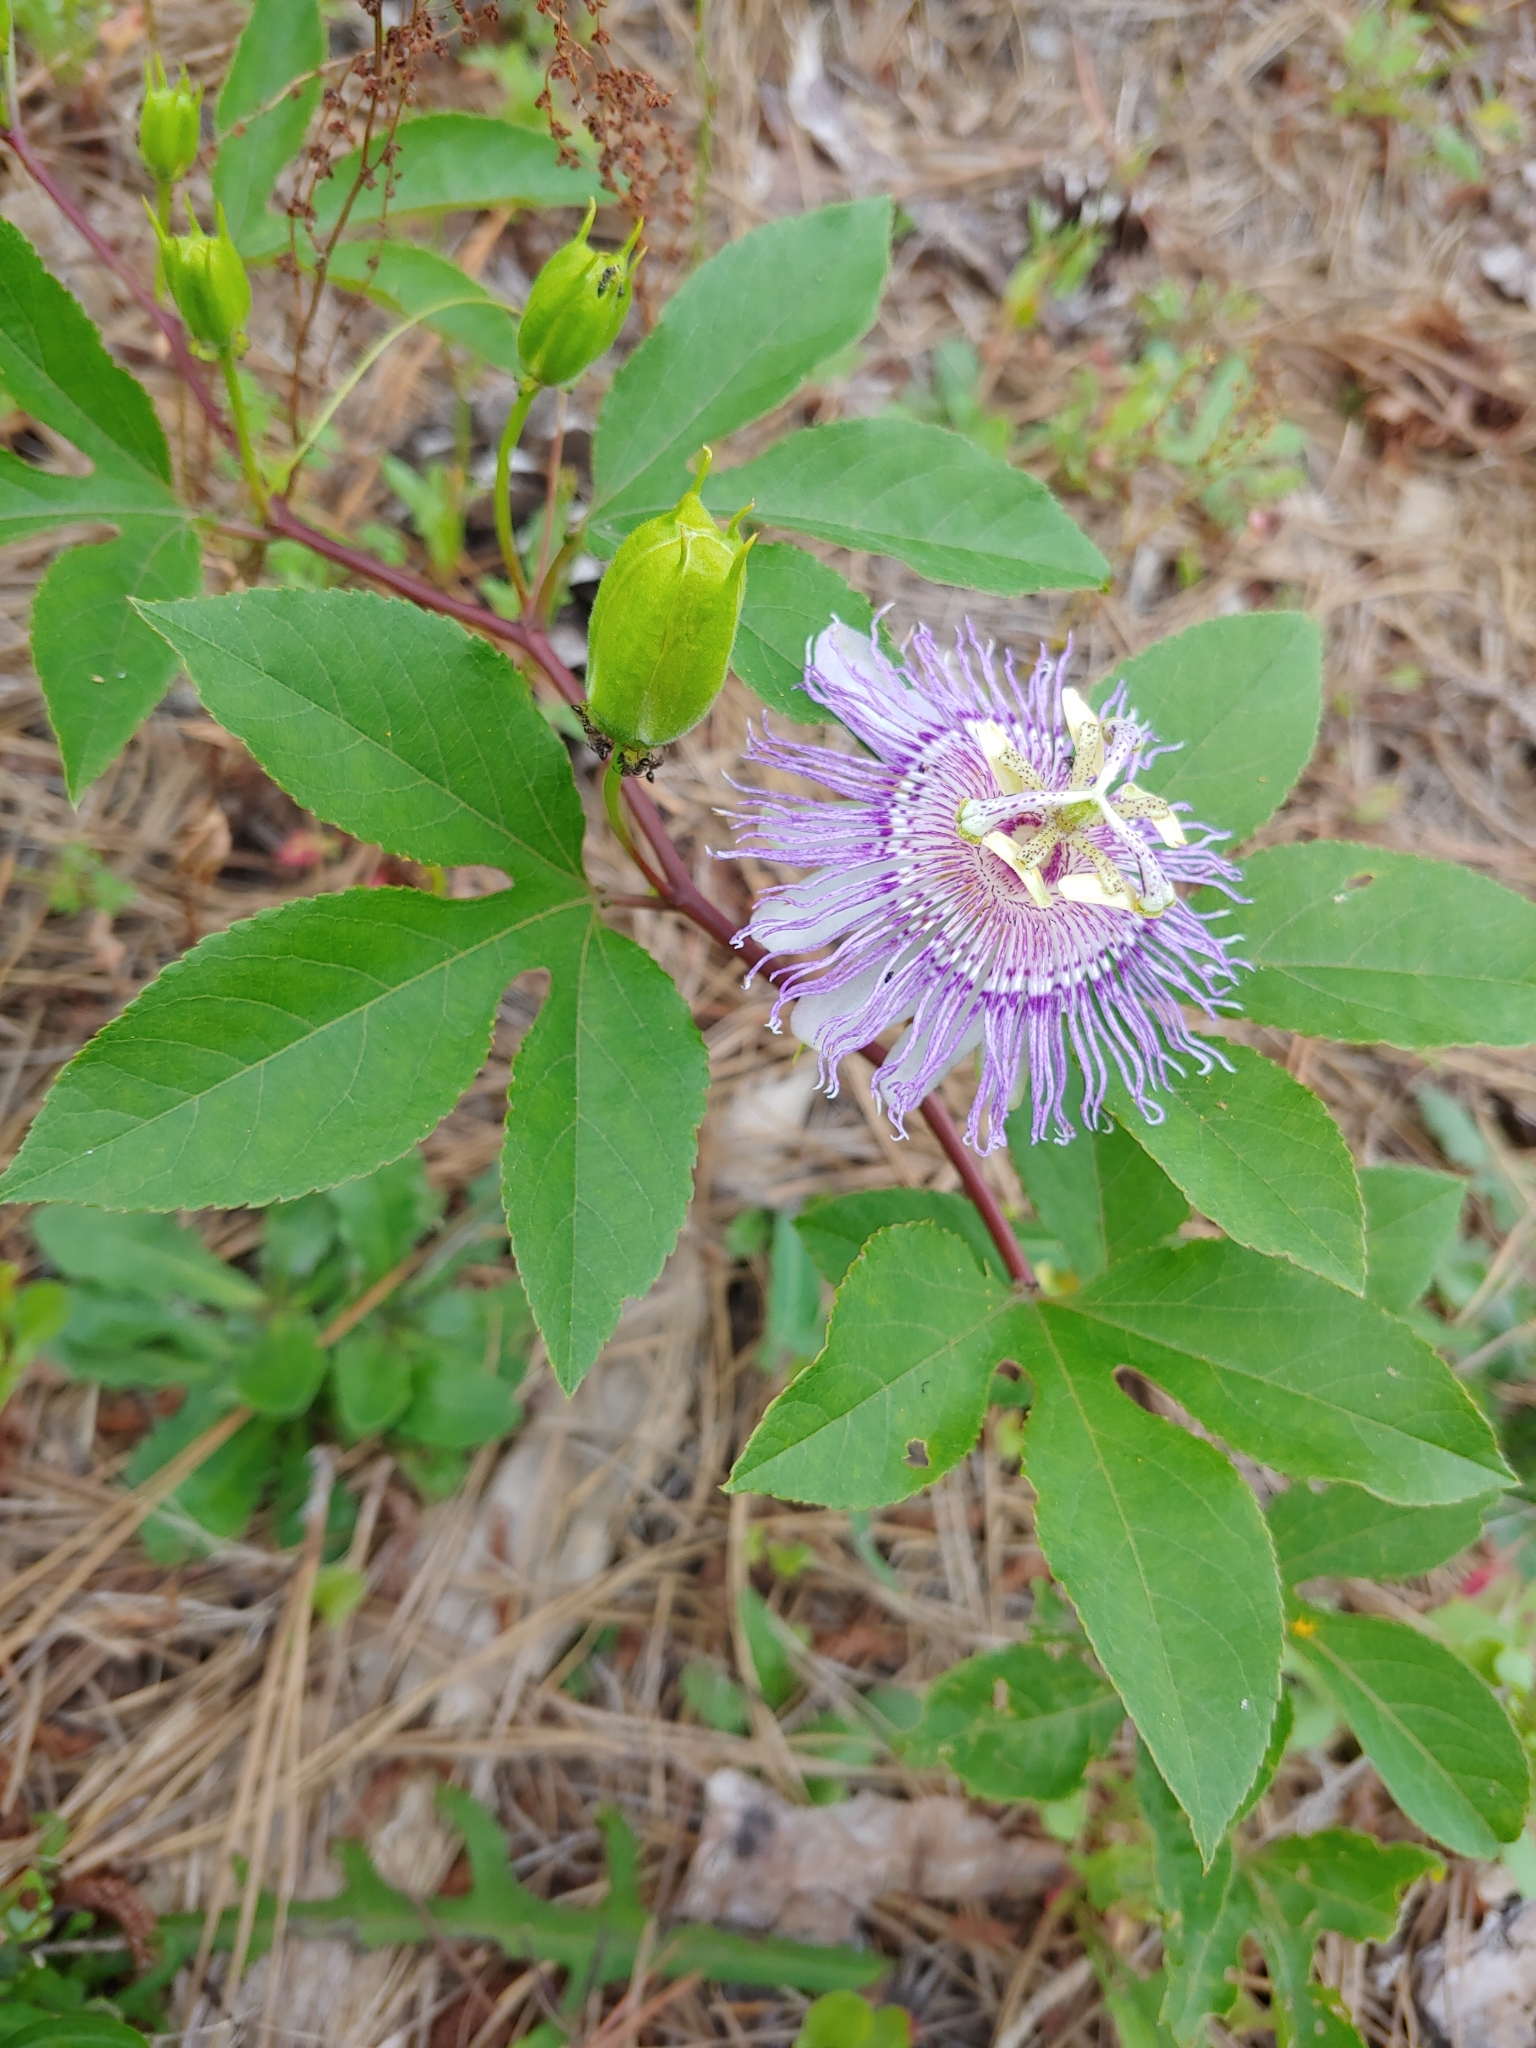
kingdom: Plantae
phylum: Tracheophyta
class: Magnoliopsida
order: Malpighiales
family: Passifloraceae
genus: Passiflora
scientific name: Passiflora incarnata
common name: Apricot-vine
